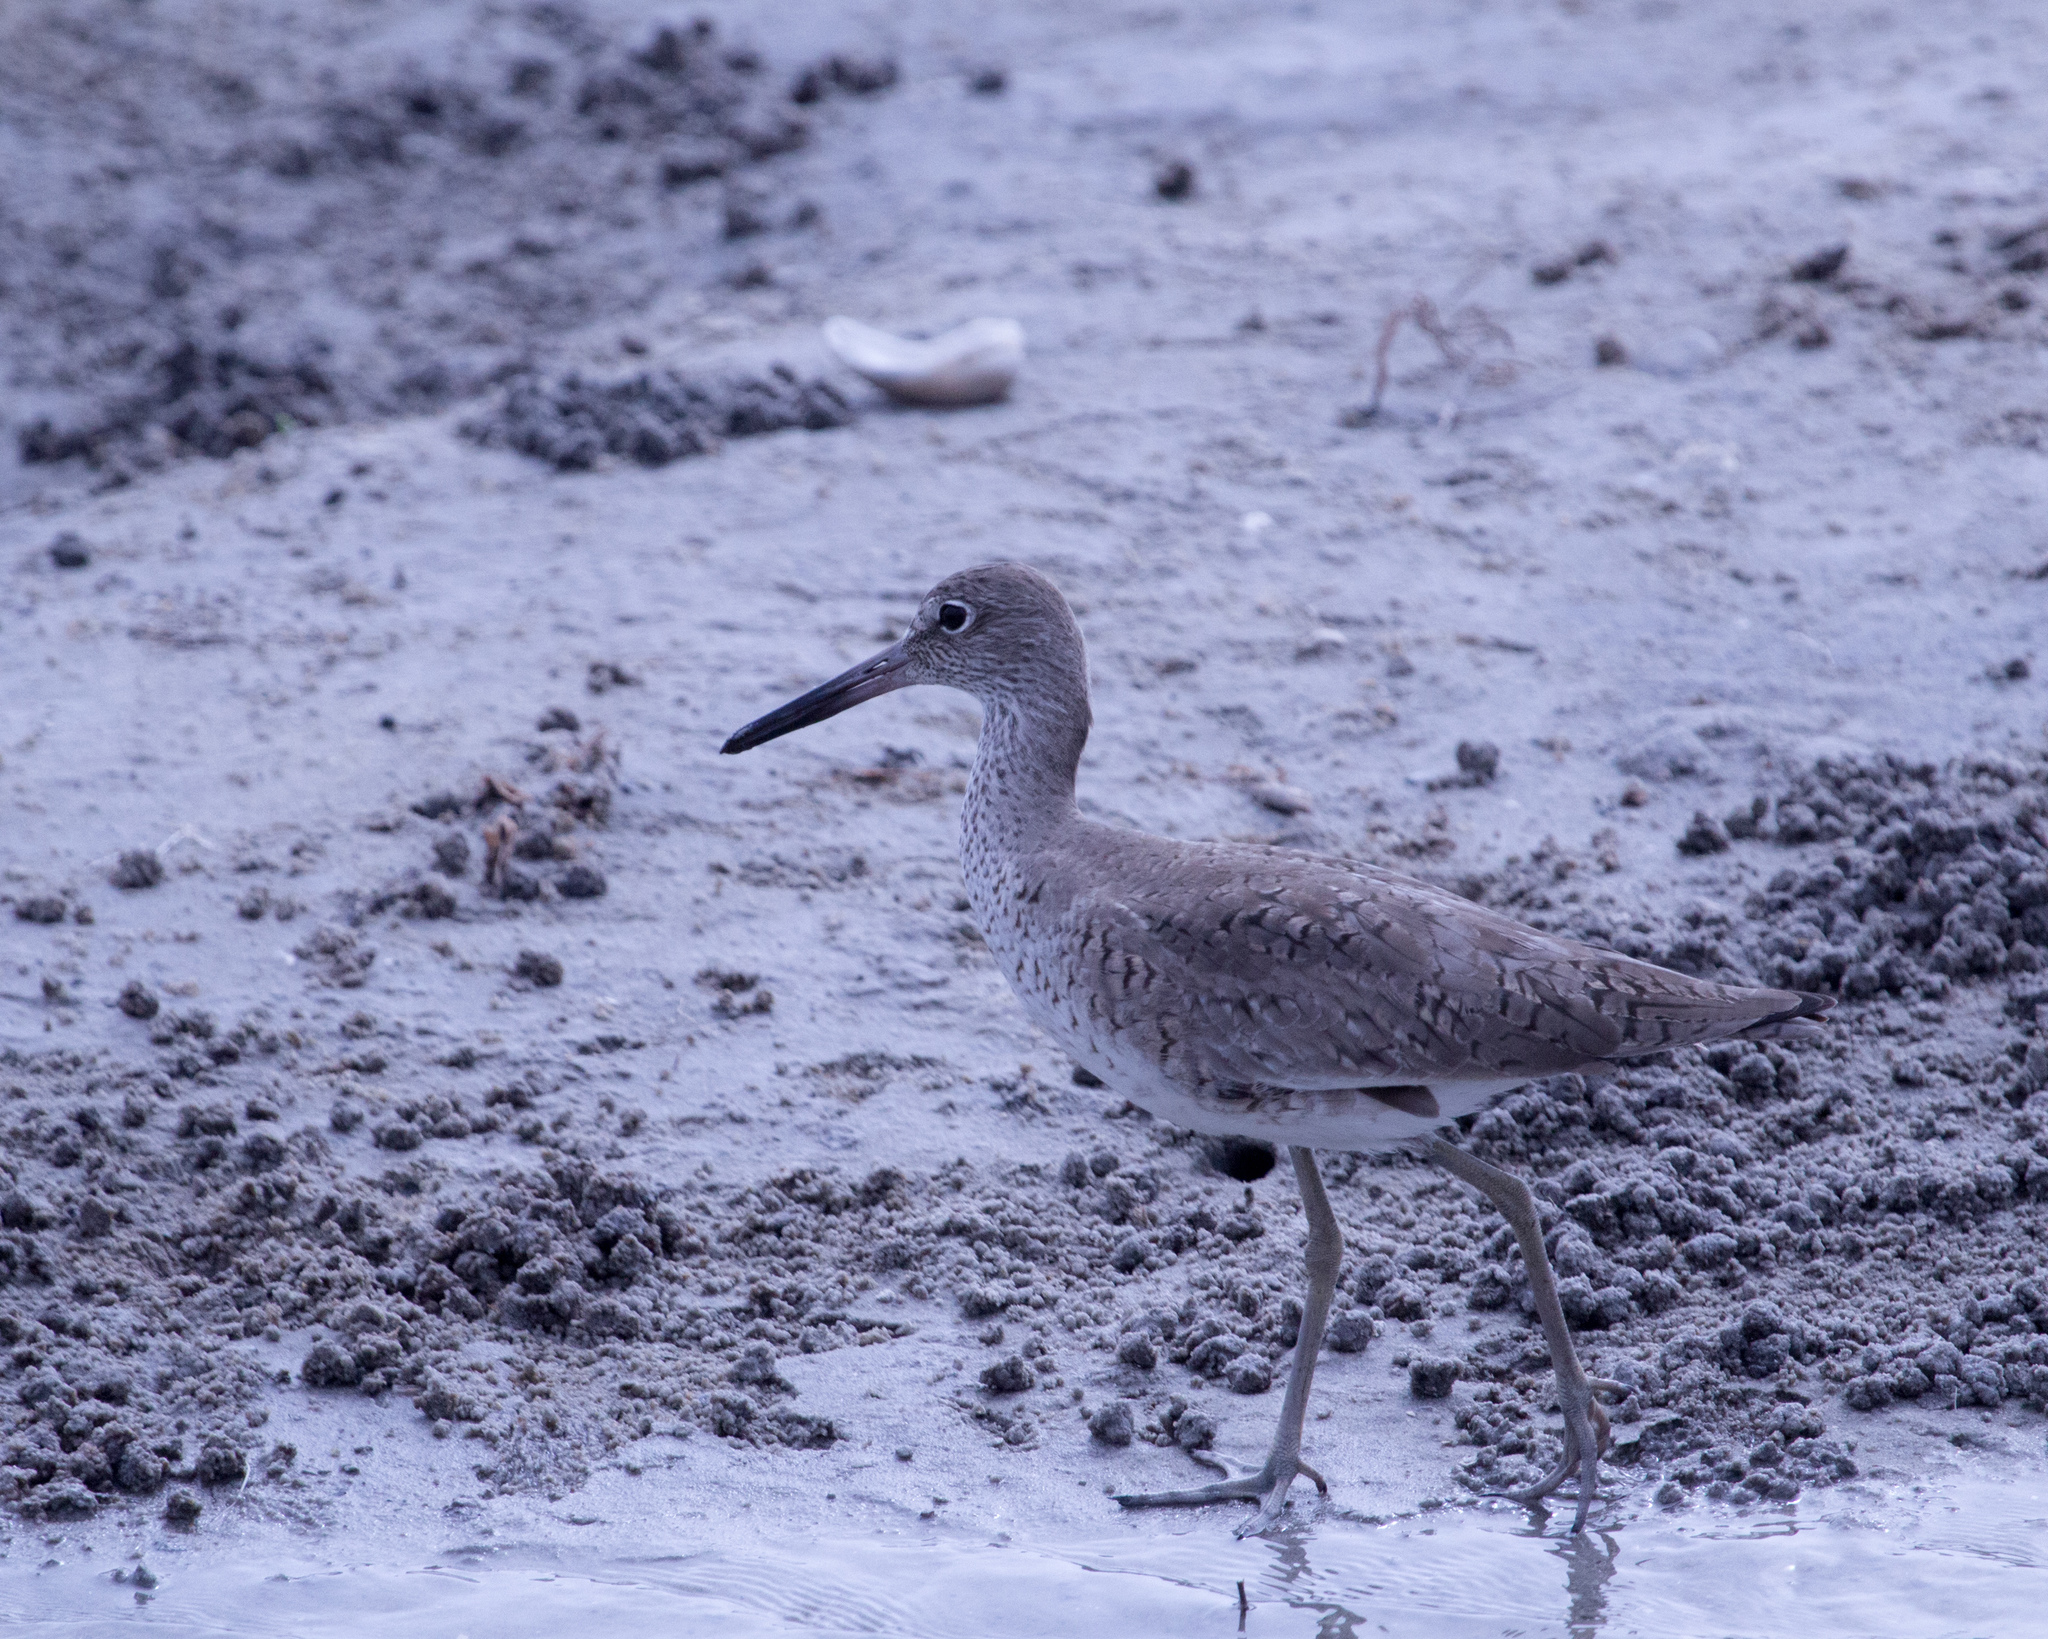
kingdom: Animalia
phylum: Chordata
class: Aves
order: Charadriiformes
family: Scolopacidae
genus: Tringa
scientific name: Tringa semipalmata
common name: Willet
